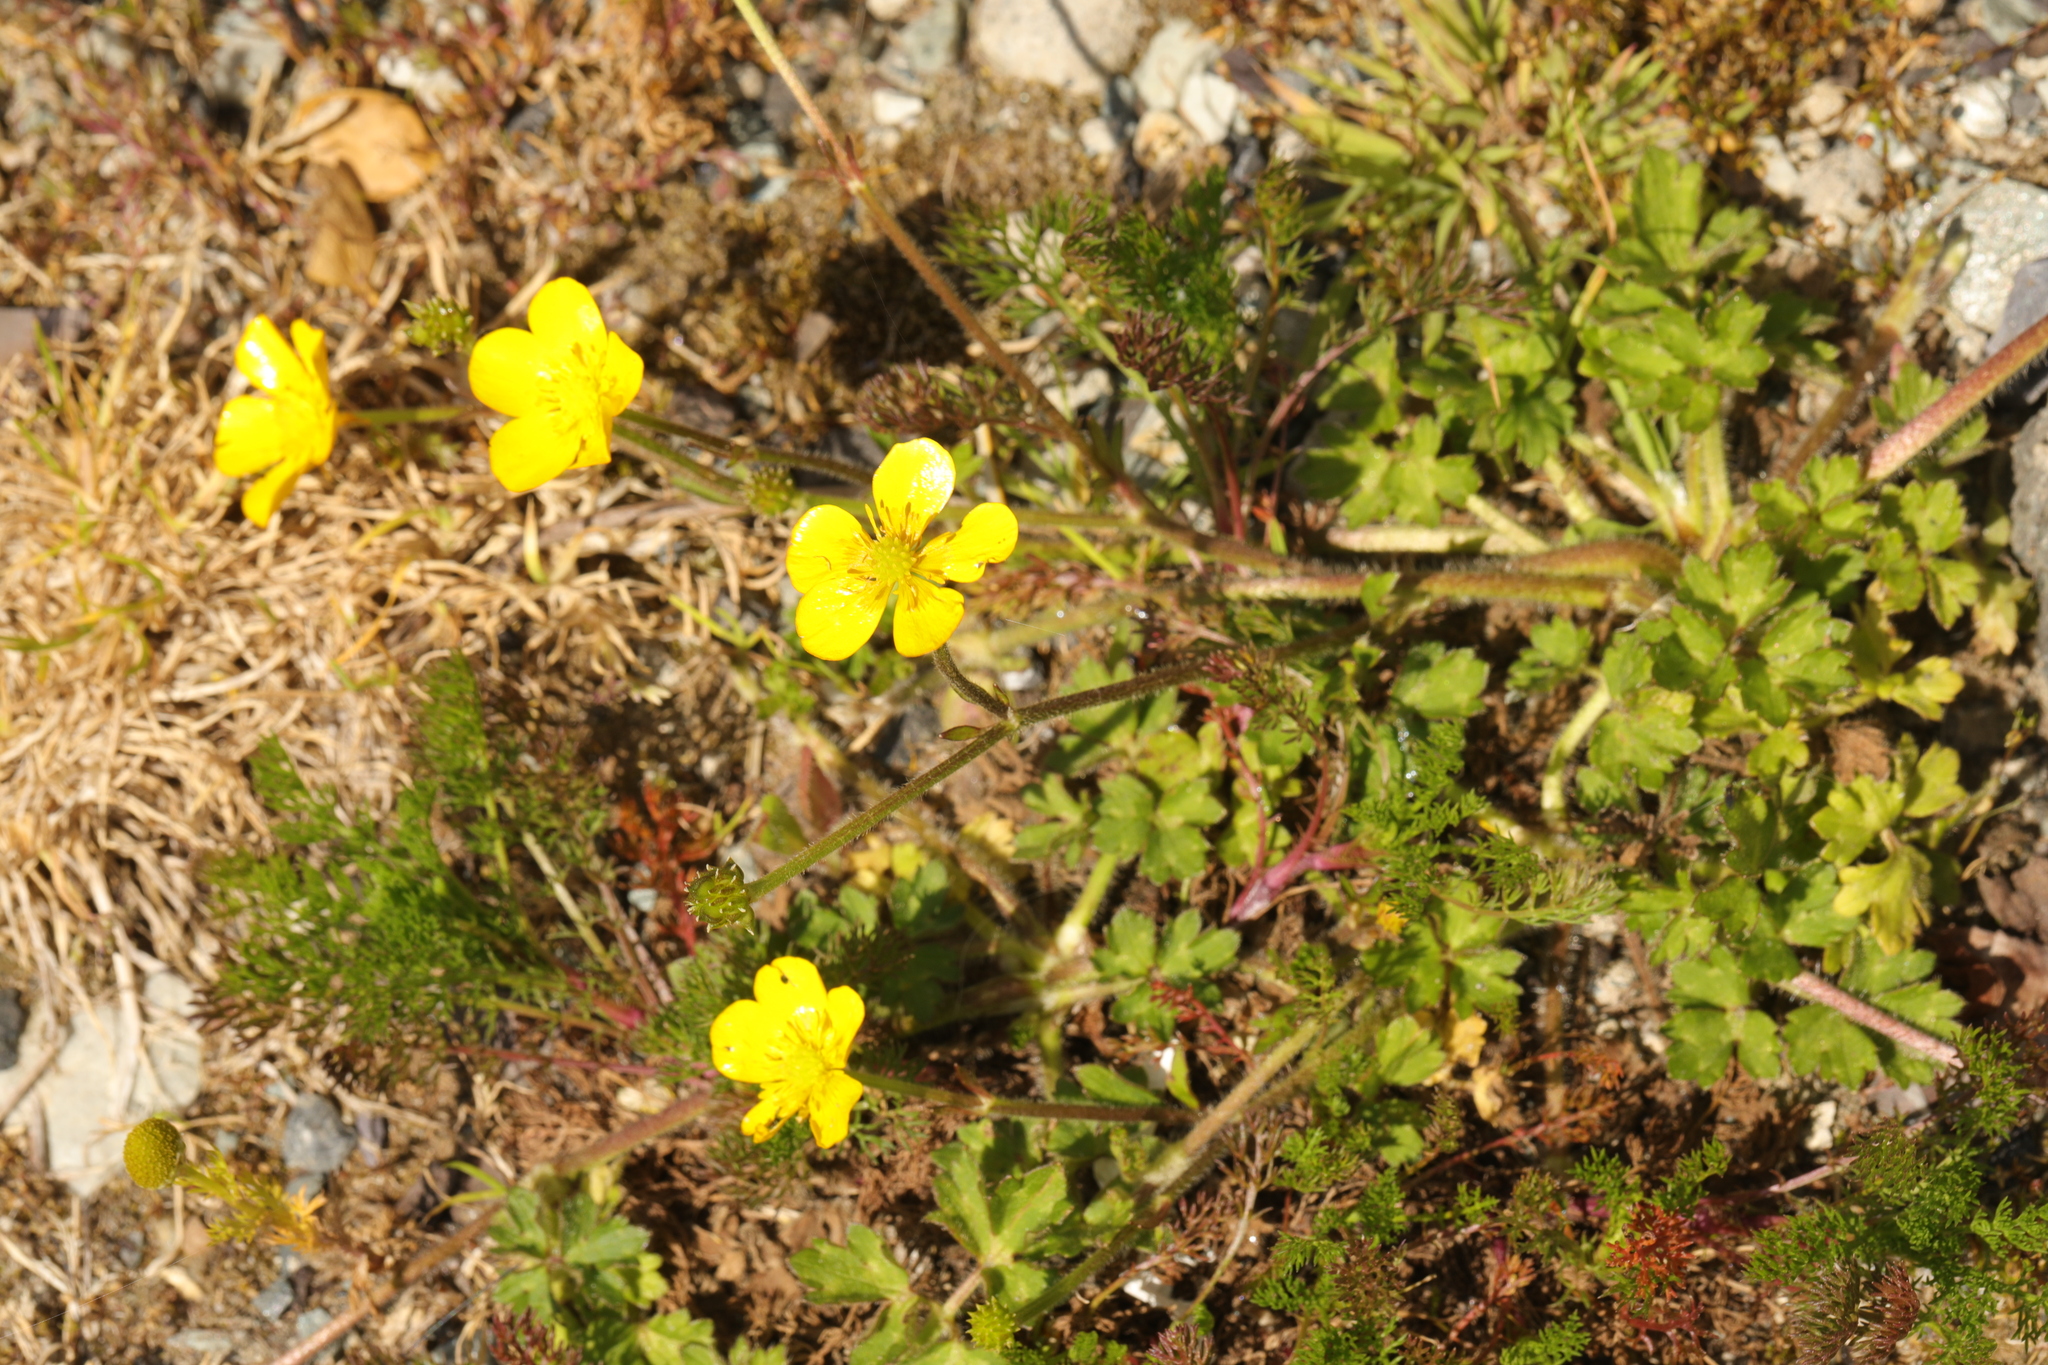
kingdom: Plantae
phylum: Tracheophyta
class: Magnoliopsida
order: Ranunculales
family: Ranunculaceae
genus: Ranunculus
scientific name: Ranunculus repens
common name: Creeping buttercup
